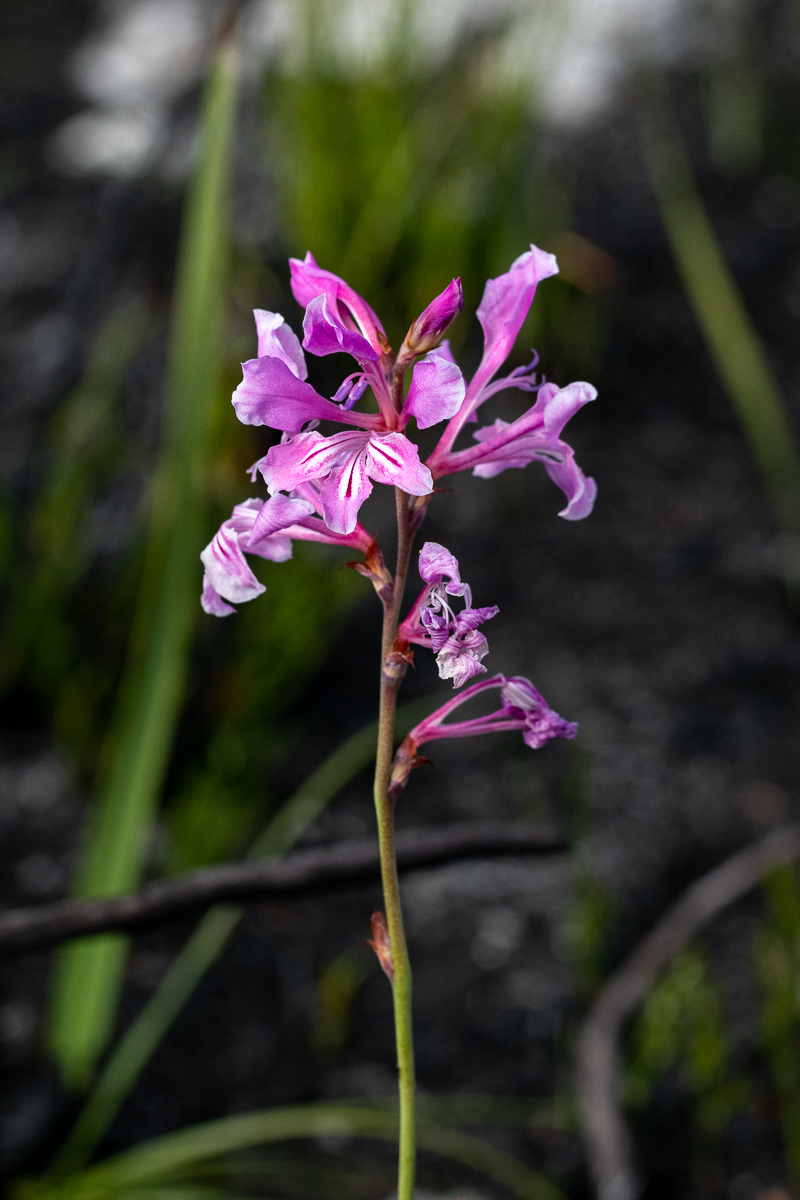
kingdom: Plantae
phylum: Tracheophyta
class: Liliopsida
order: Asparagales
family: Iridaceae
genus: Tritoniopsis
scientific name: Tritoniopsis lata
